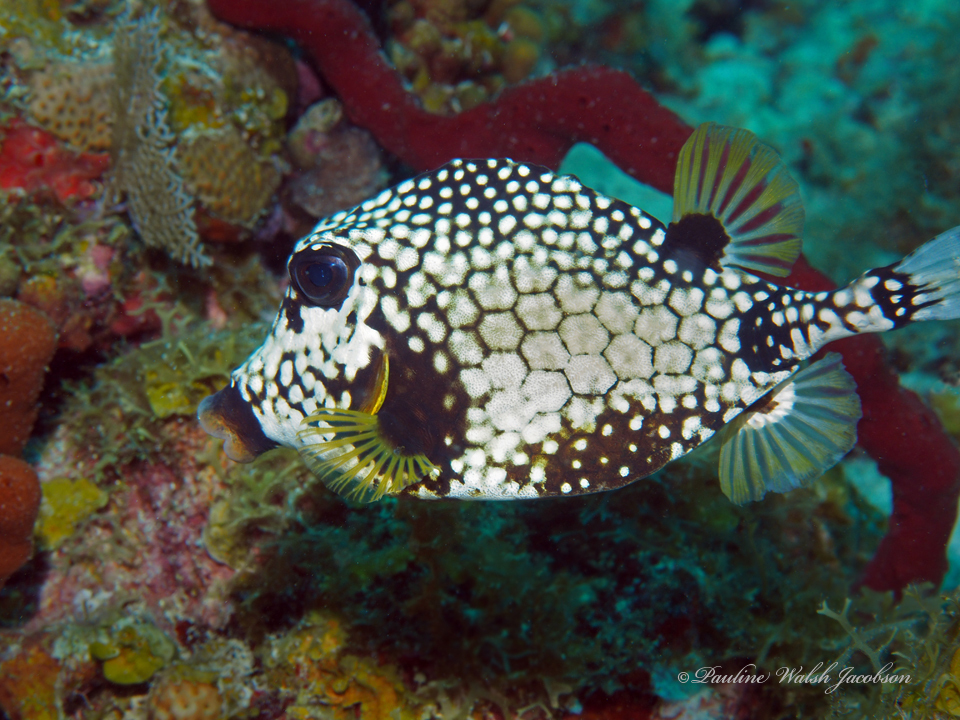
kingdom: Animalia
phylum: Chordata
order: Tetraodontiformes
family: Ostraciidae
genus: Lactophrys
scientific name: Lactophrys triqueter
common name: Smooth trunkfish
